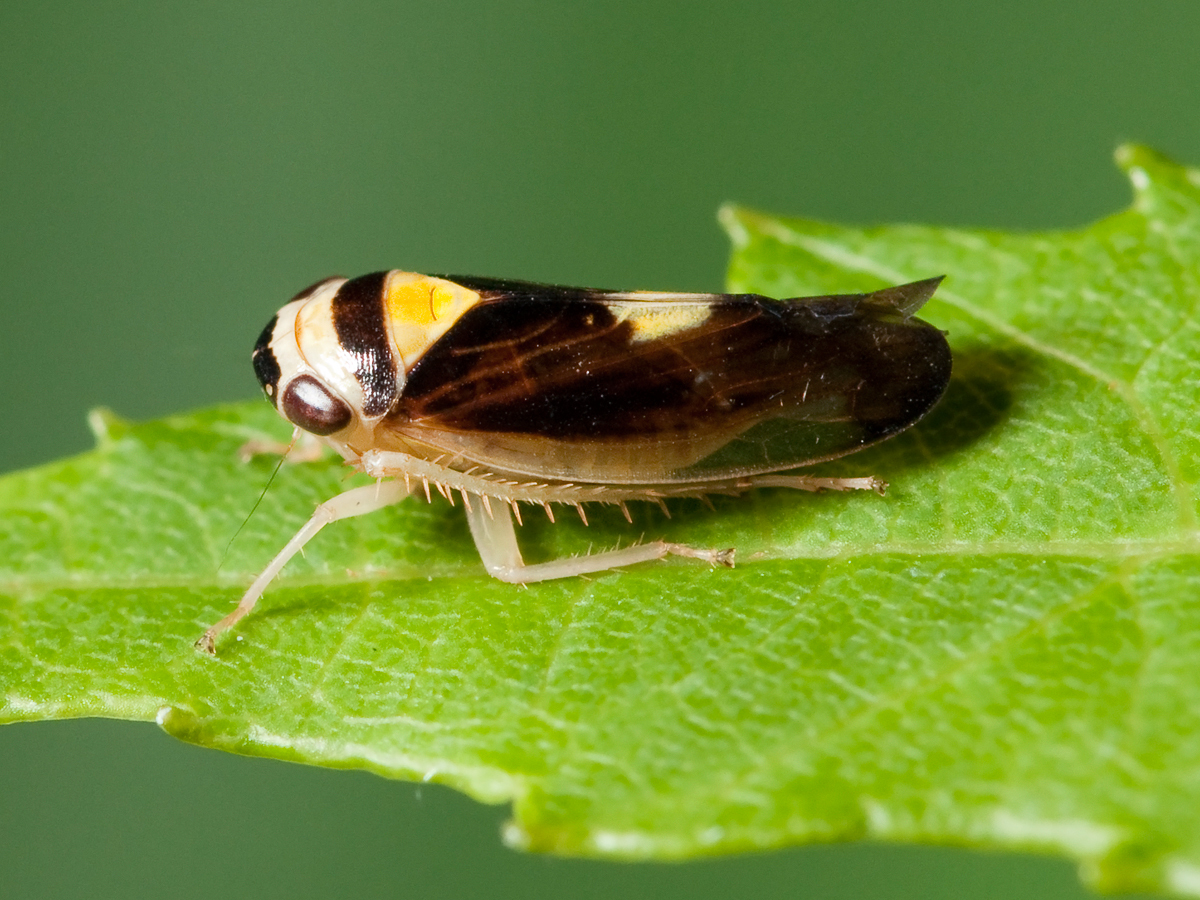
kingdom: Animalia
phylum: Arthropoda
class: Insecta
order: Hemiptera
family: Cicadellidae
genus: Eutettix
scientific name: Eutettix pictus
